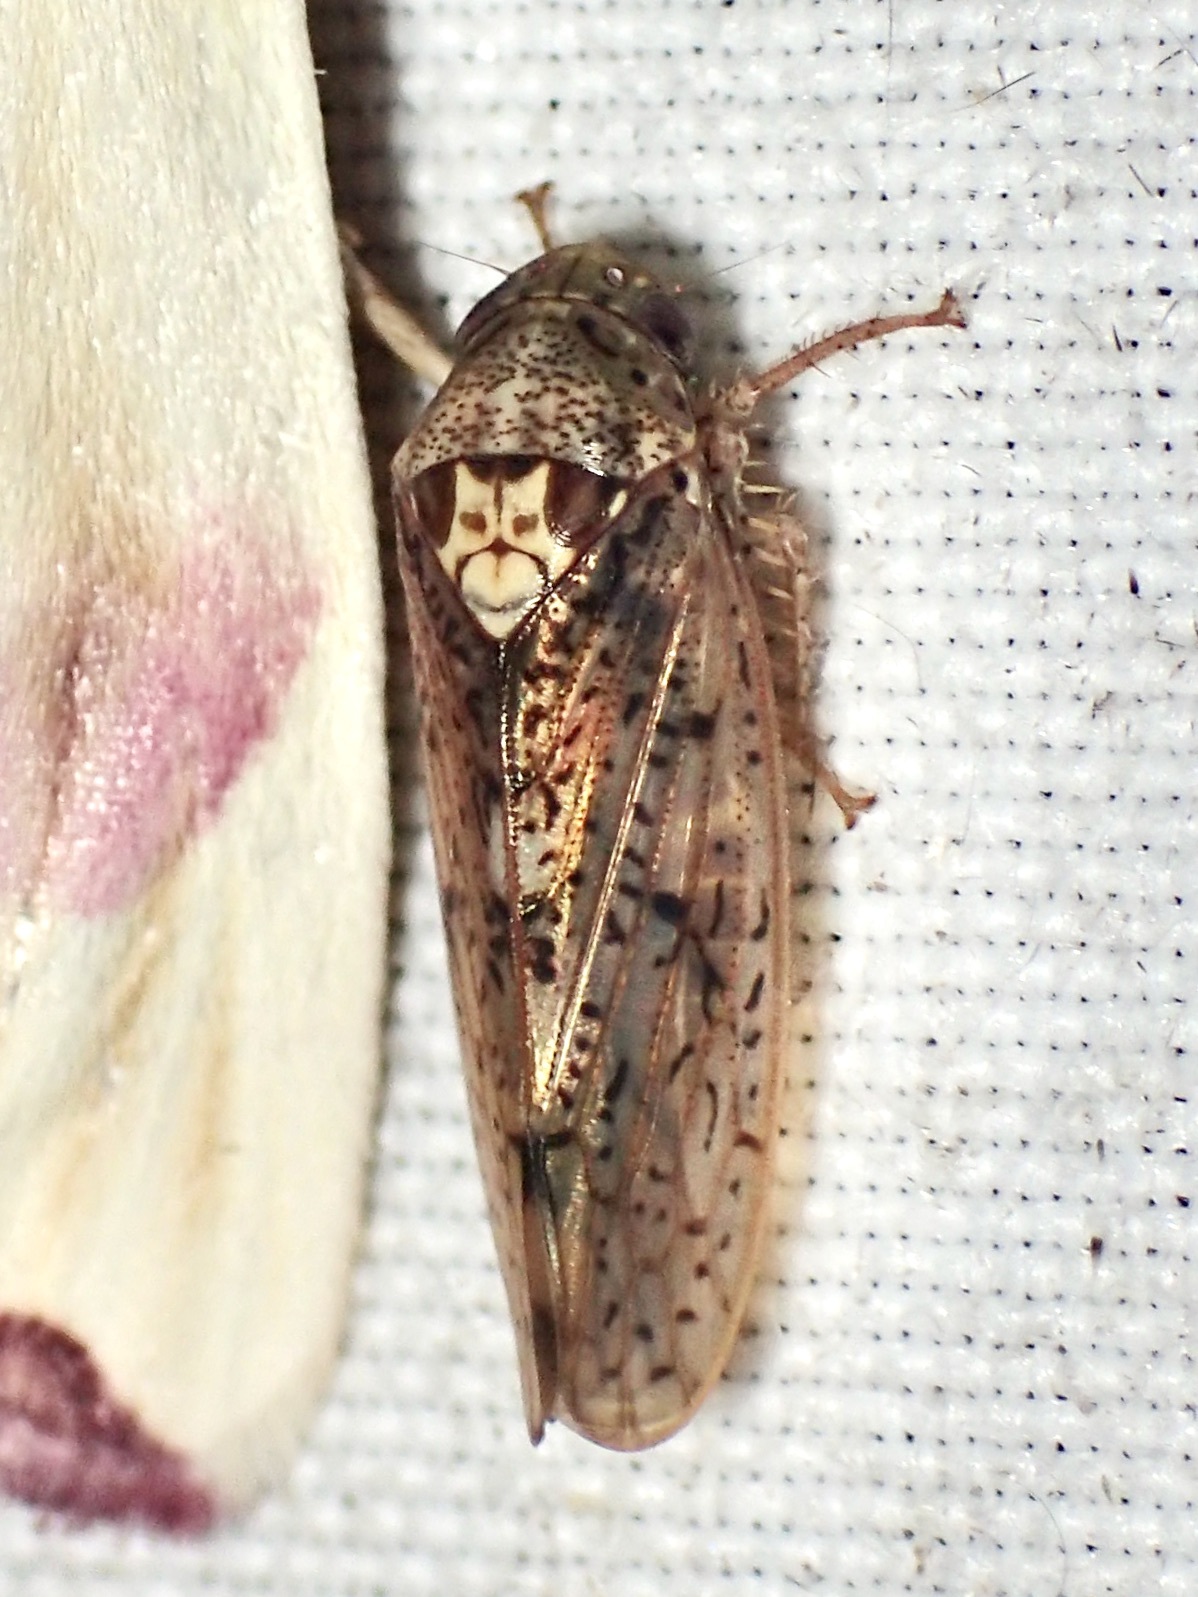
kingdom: Animalia
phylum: Arthropoda
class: Insecta
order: Hemiptera
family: Cicadellidae
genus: Ponana
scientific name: Ponana aquila
